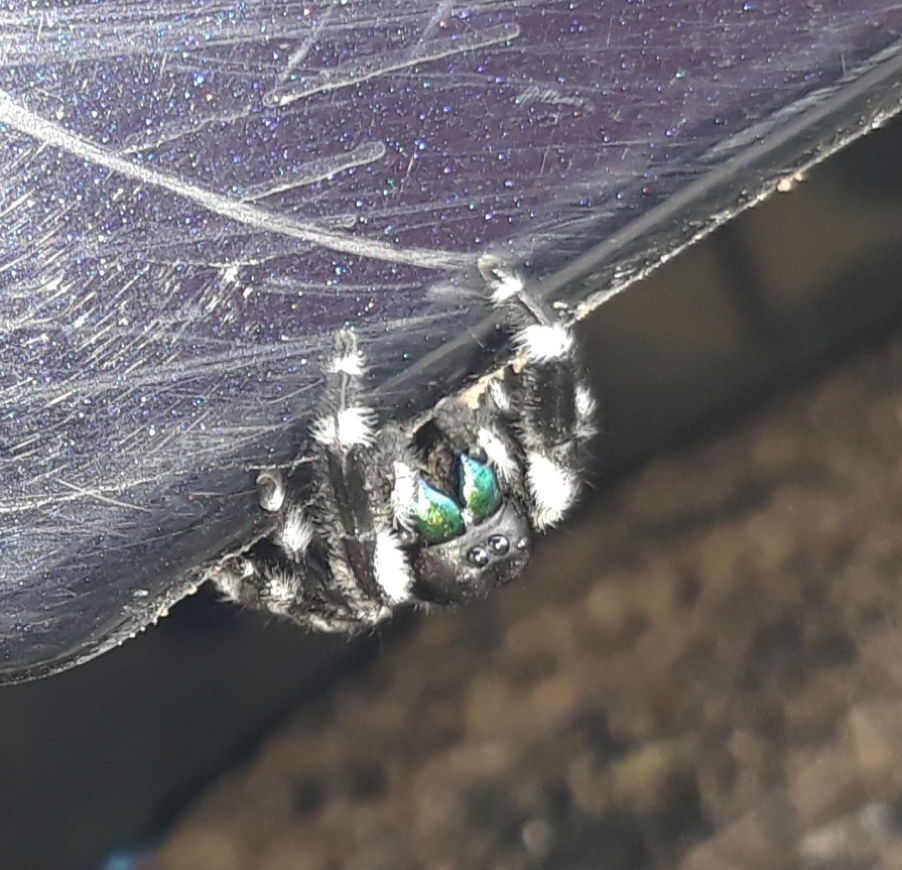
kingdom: Animalia
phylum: Arthropoda
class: Arachnida
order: Araneae
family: Salticidae
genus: Phidippus
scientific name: Phidippus audax
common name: Bold jumper
